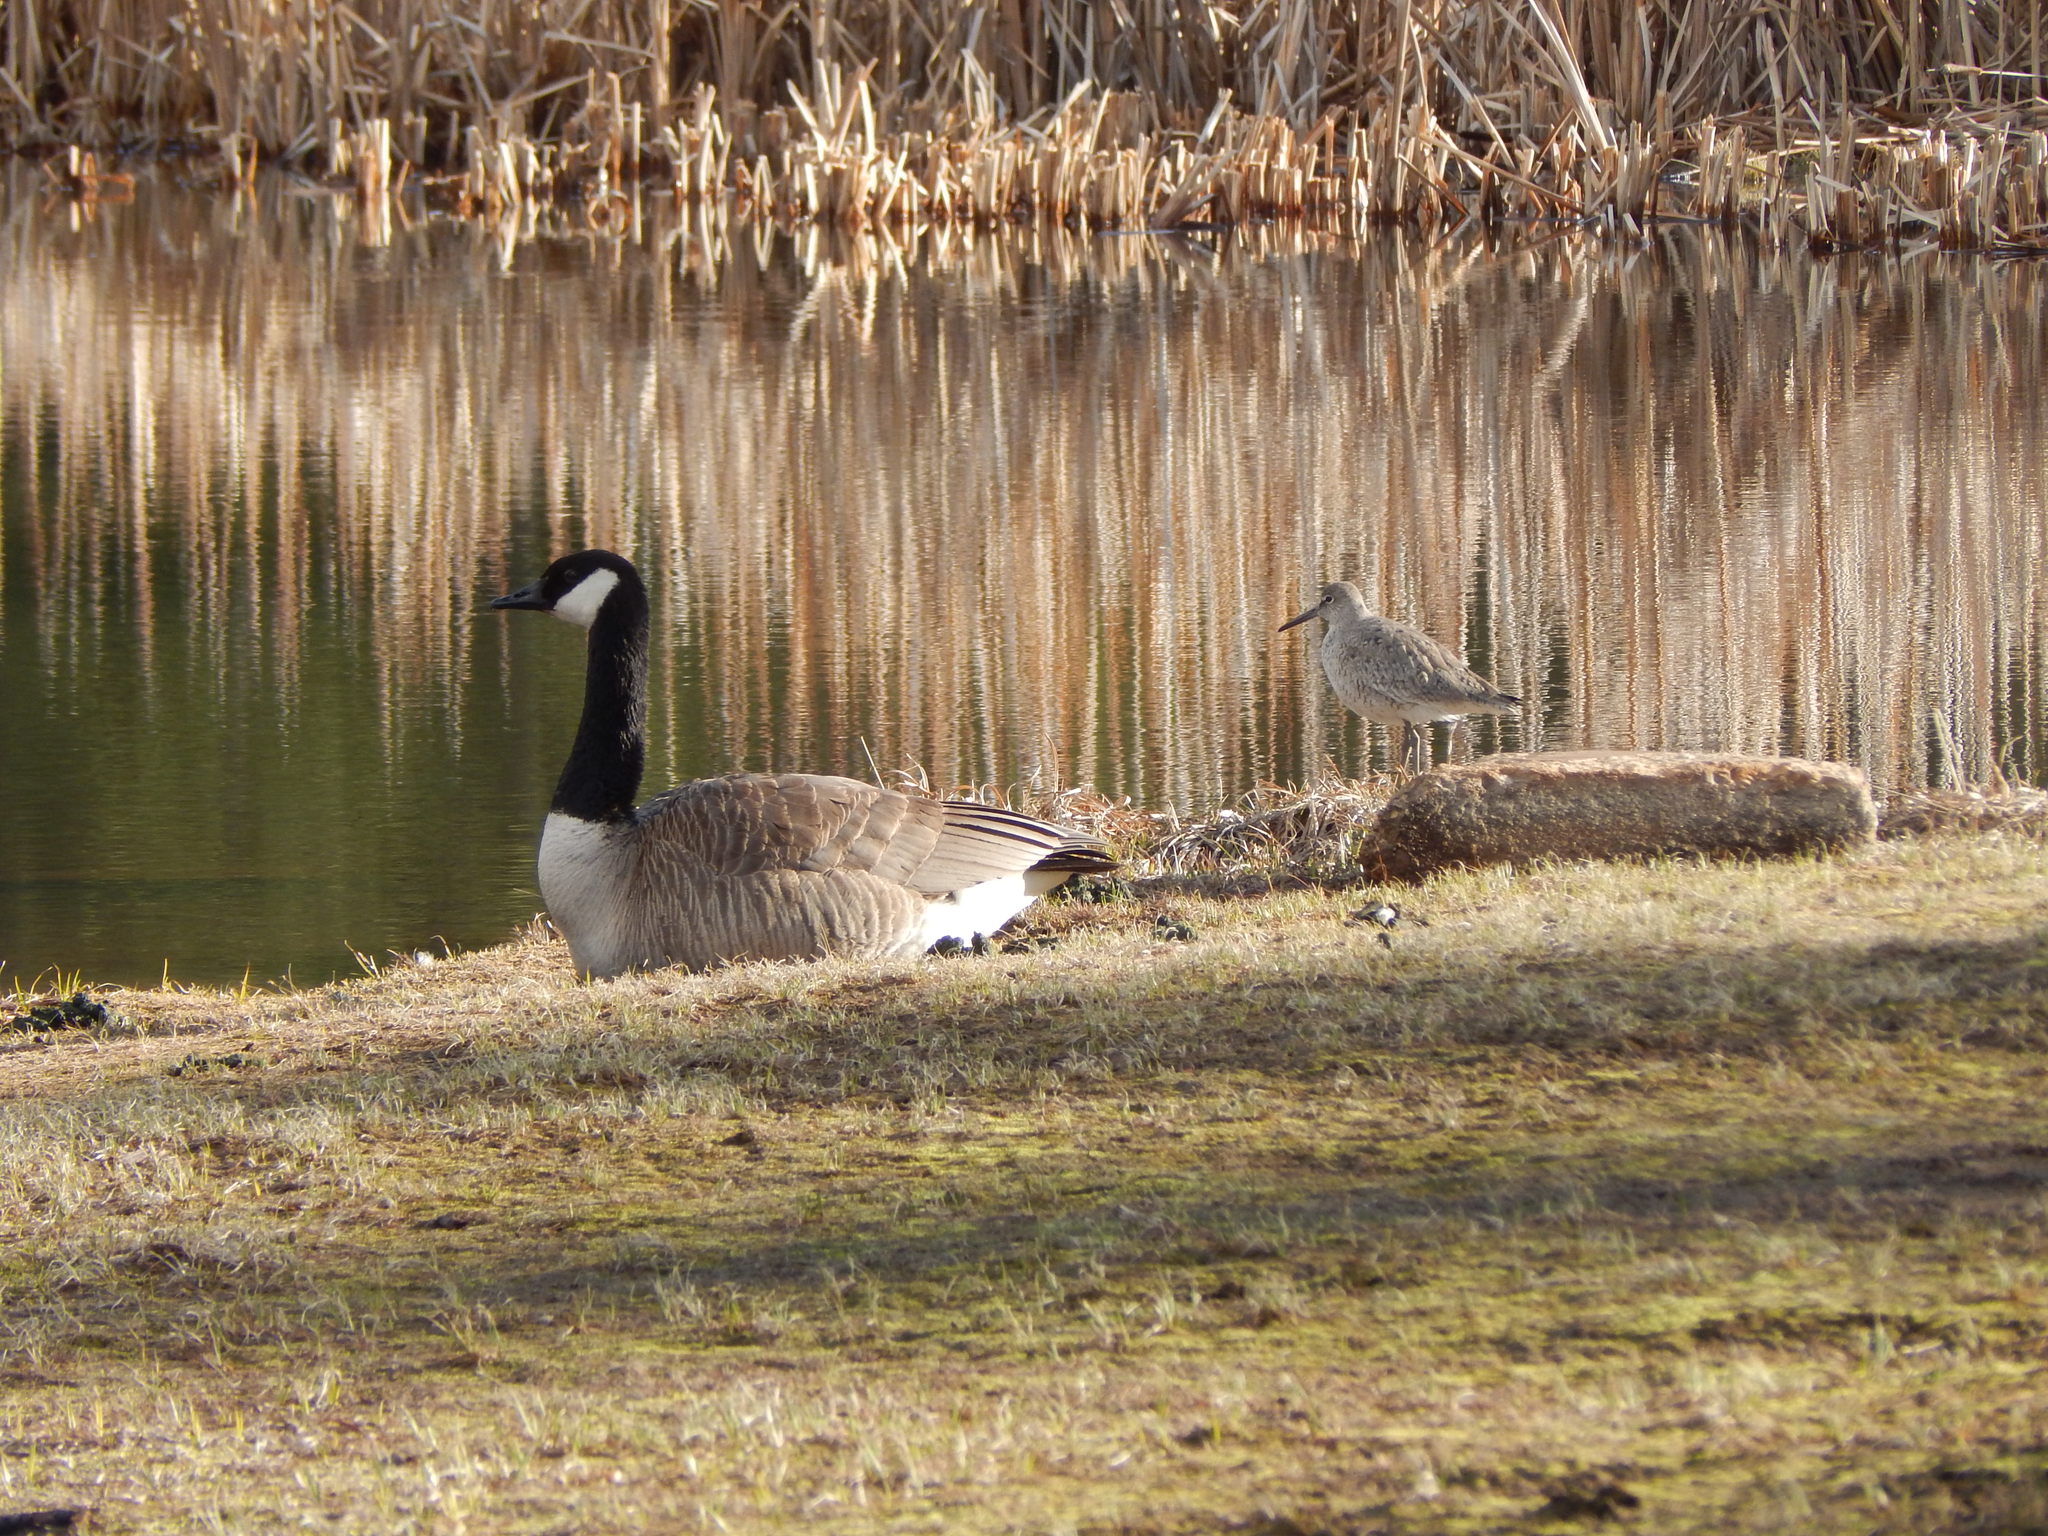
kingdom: Animalia
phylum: Chordata
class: Aves
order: Anseriformes
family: Anatidae
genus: Branta
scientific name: Branta canadensis
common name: Canada goose
